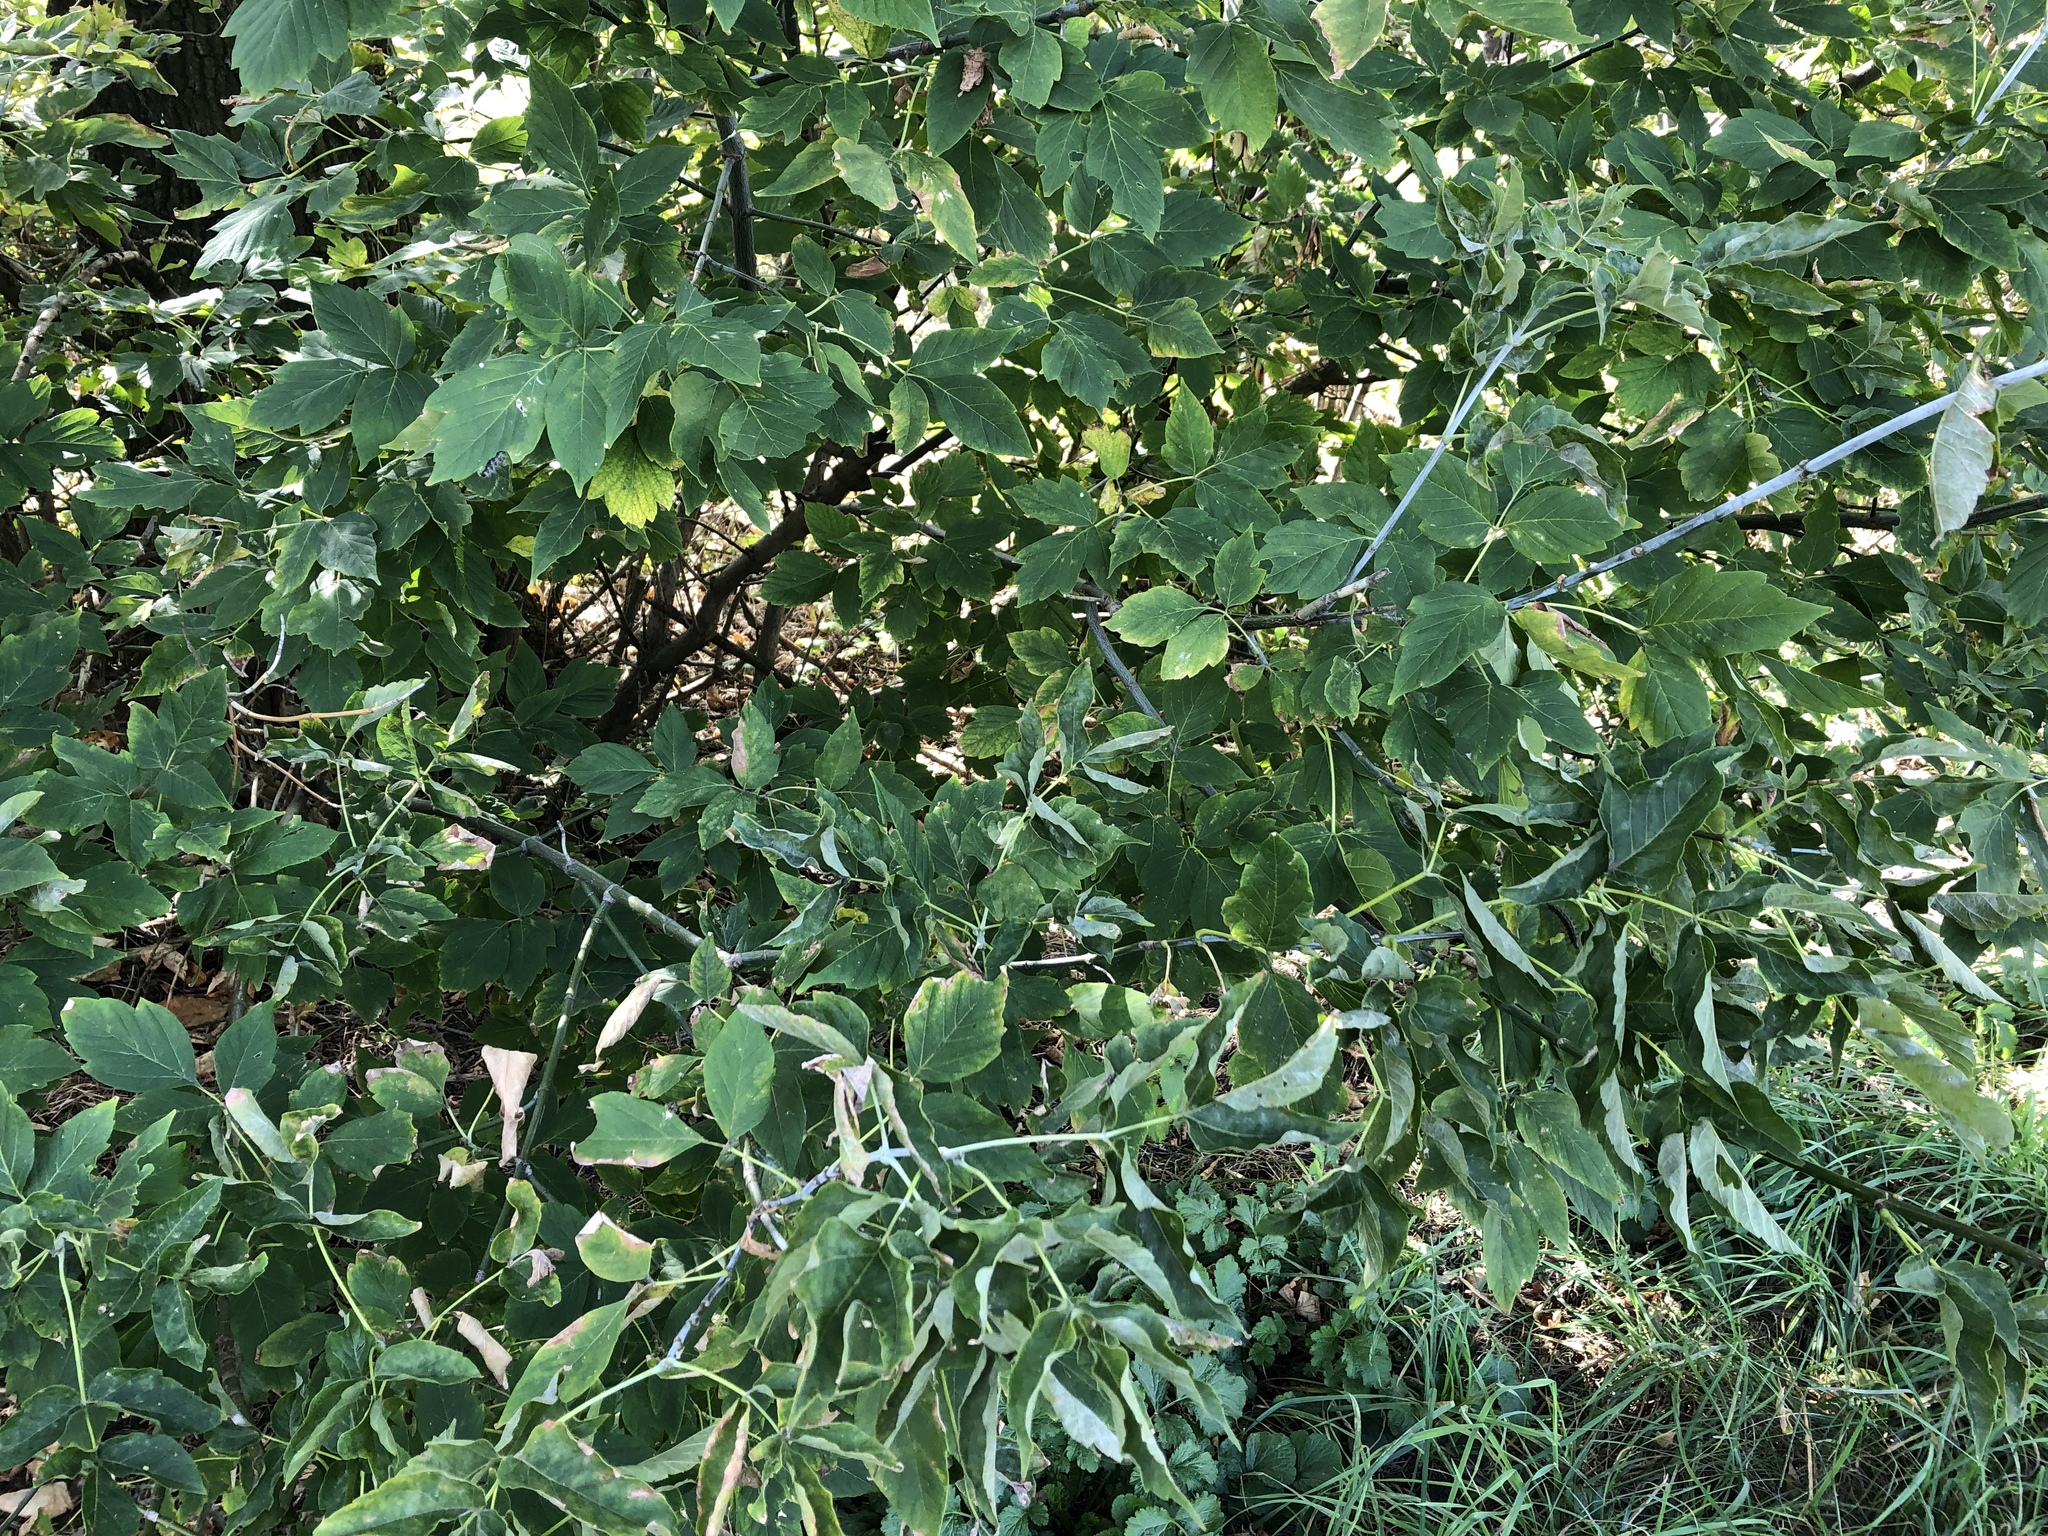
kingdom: Plantae
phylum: Tracheophyta
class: Magnoliopsida
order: Sapindales
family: Sapindaceae
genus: Acer
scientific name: Acer negundo
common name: Ashleaf maple
